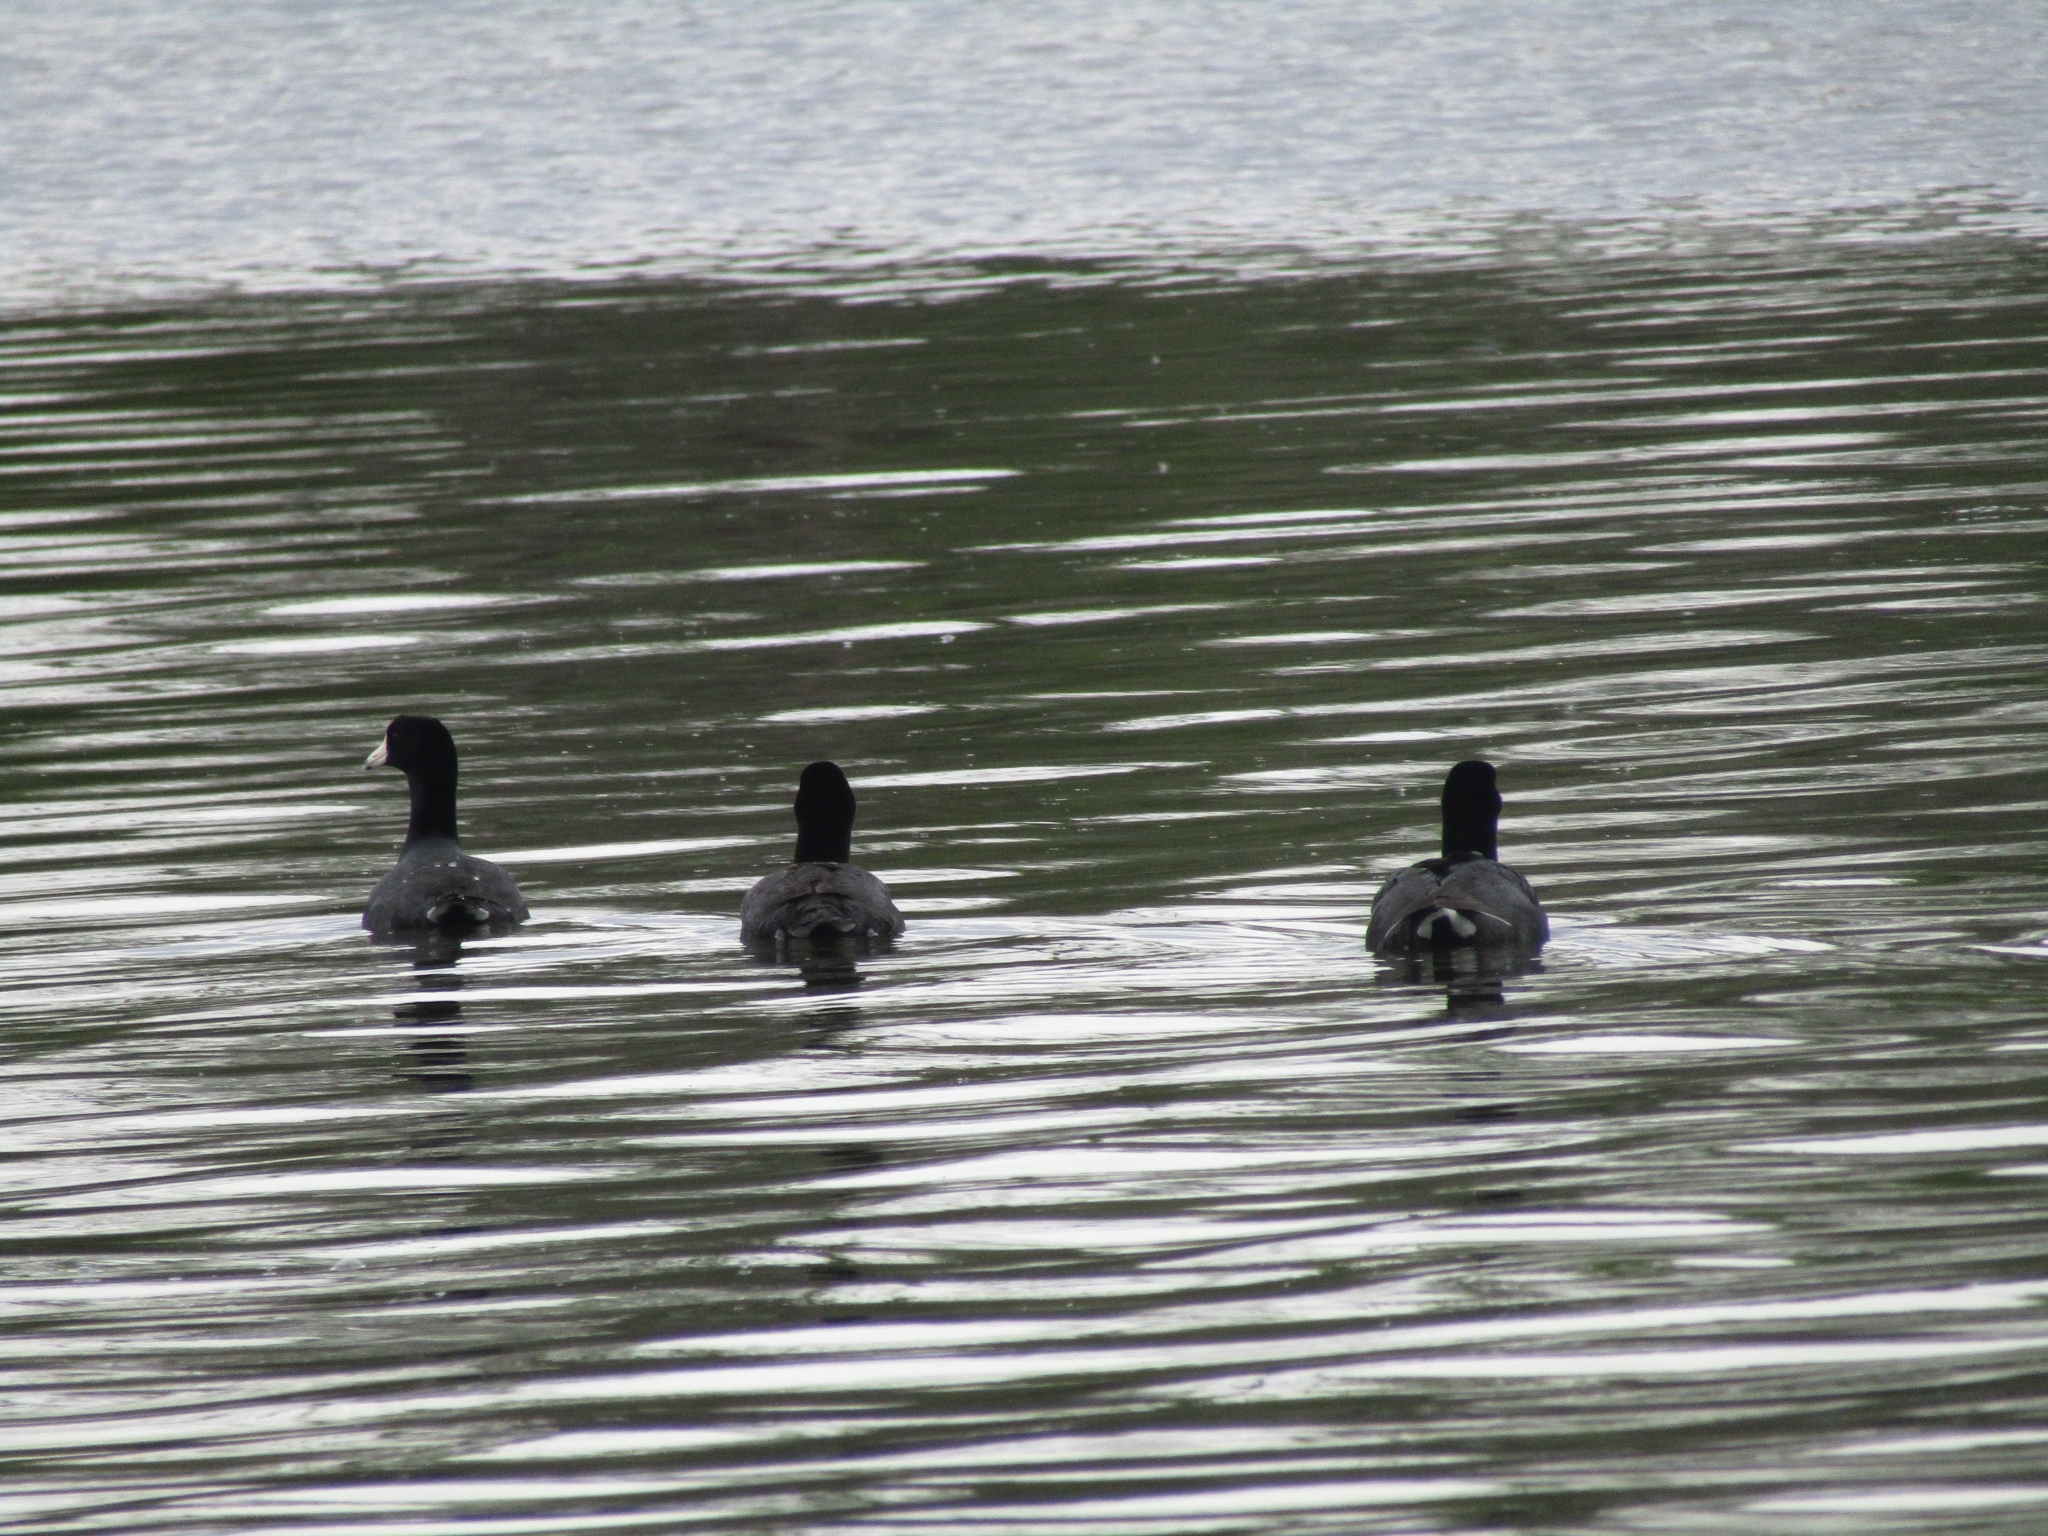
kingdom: Animalia
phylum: Chordata
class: Aves
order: Gruiformes
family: Rallidae
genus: Fulica
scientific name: Fulica americana
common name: American coot
